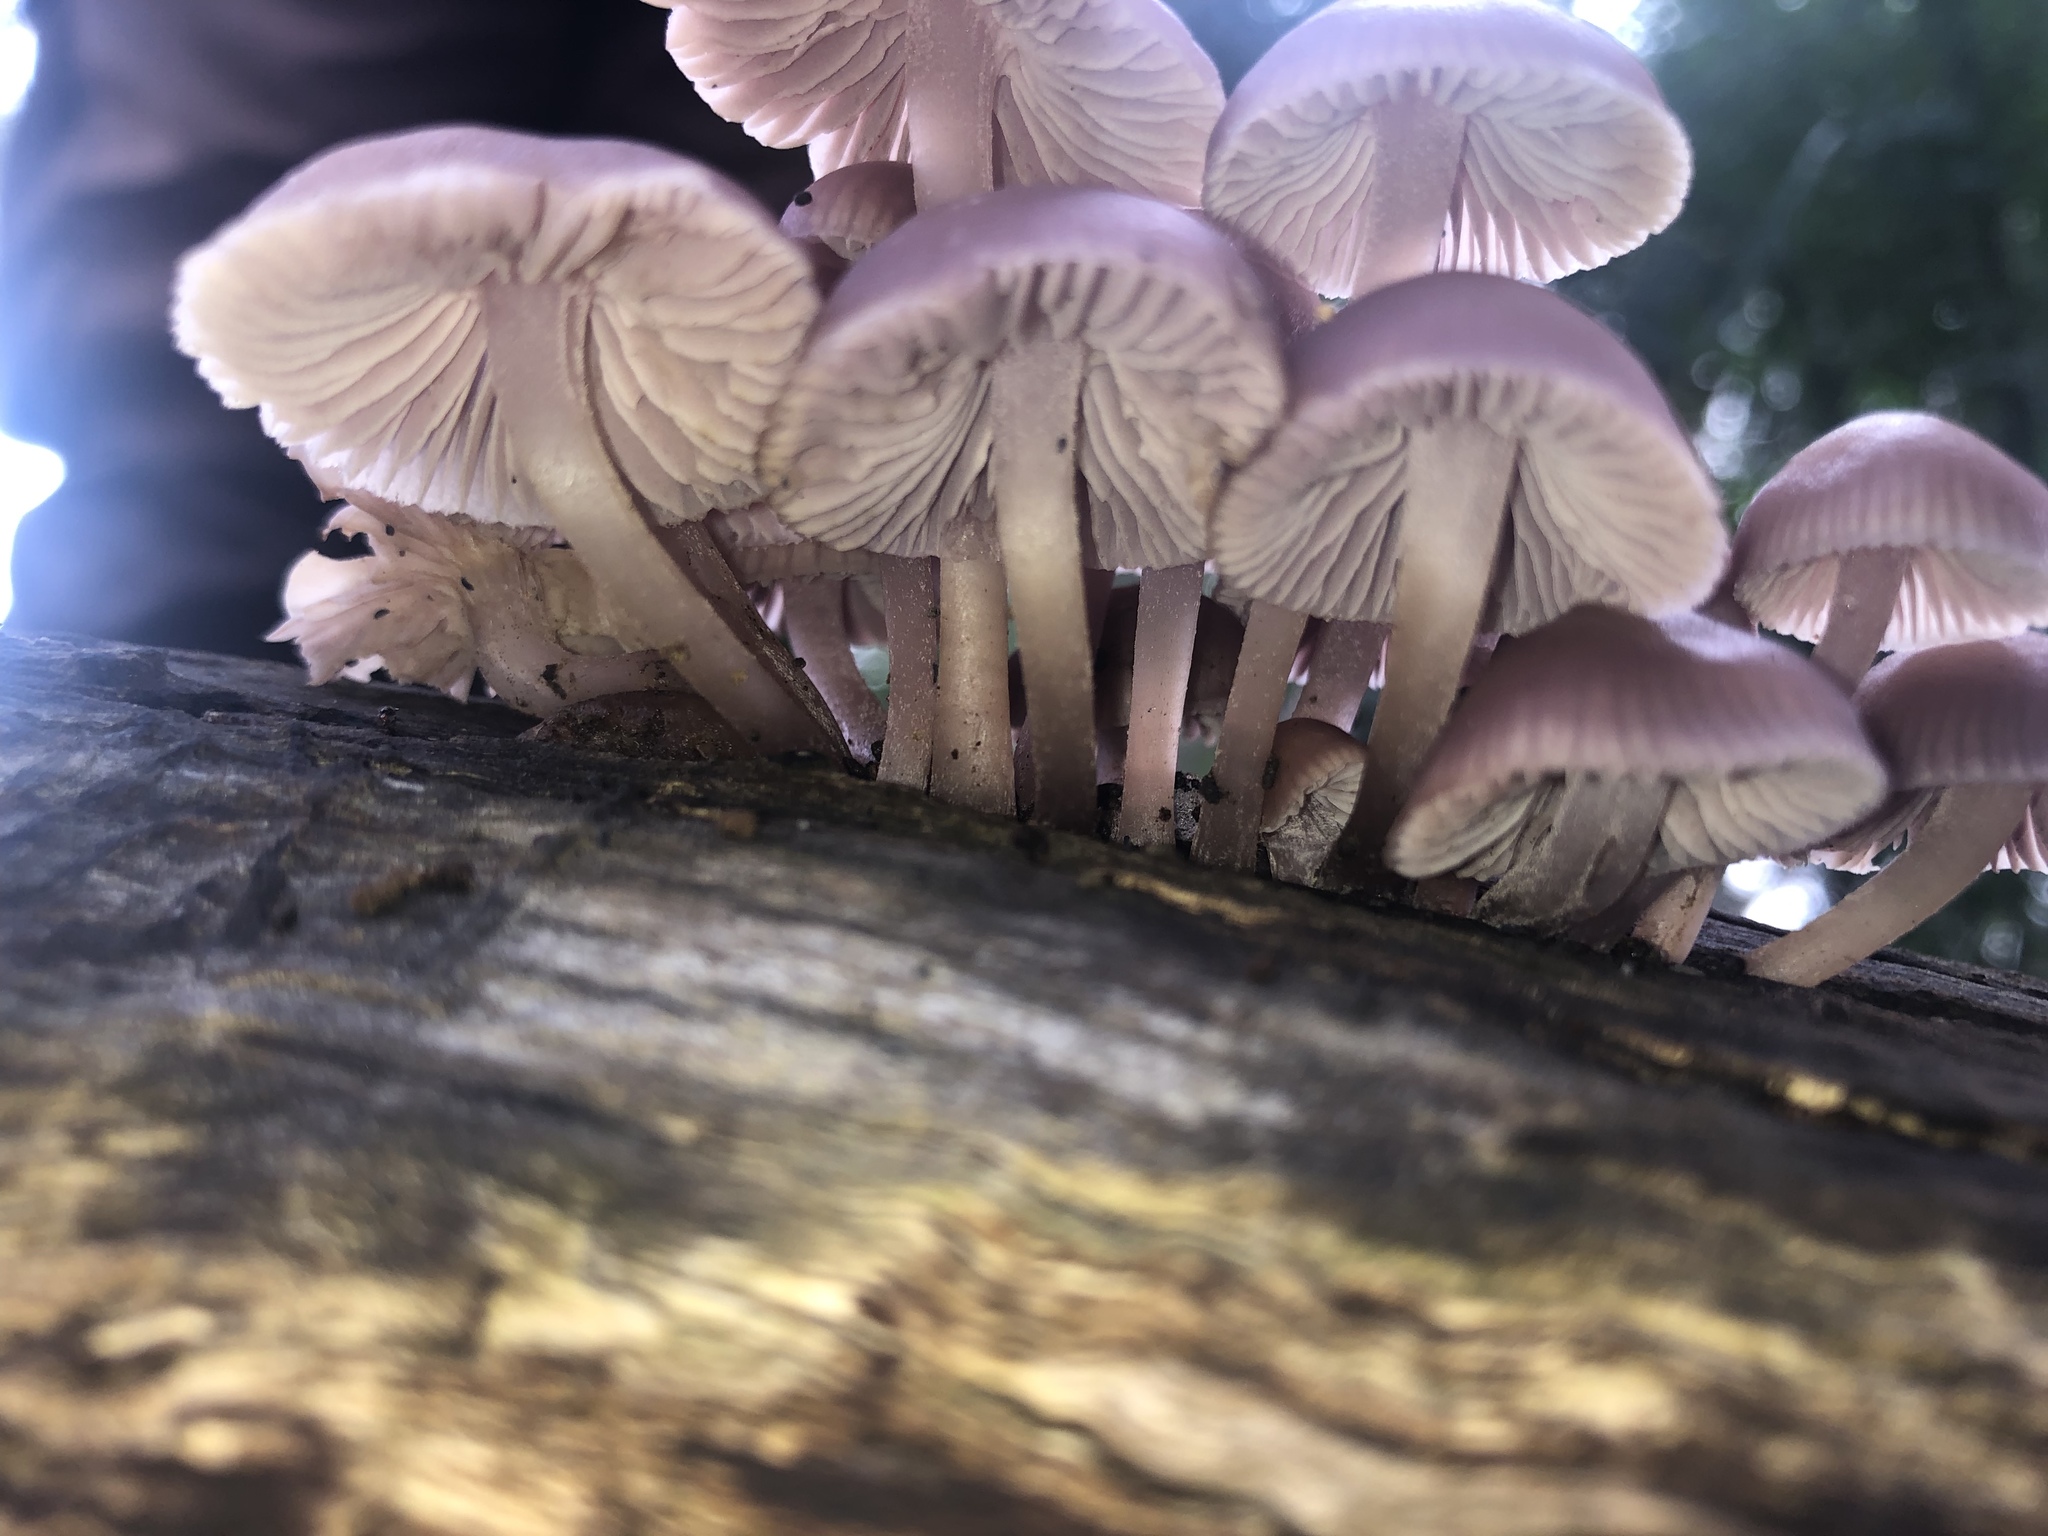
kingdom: Fungi
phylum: Basidiomycota
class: Agaricomycetes
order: Agaricales
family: Mycenaceae
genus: Mycena
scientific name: Mycena clarkeana
